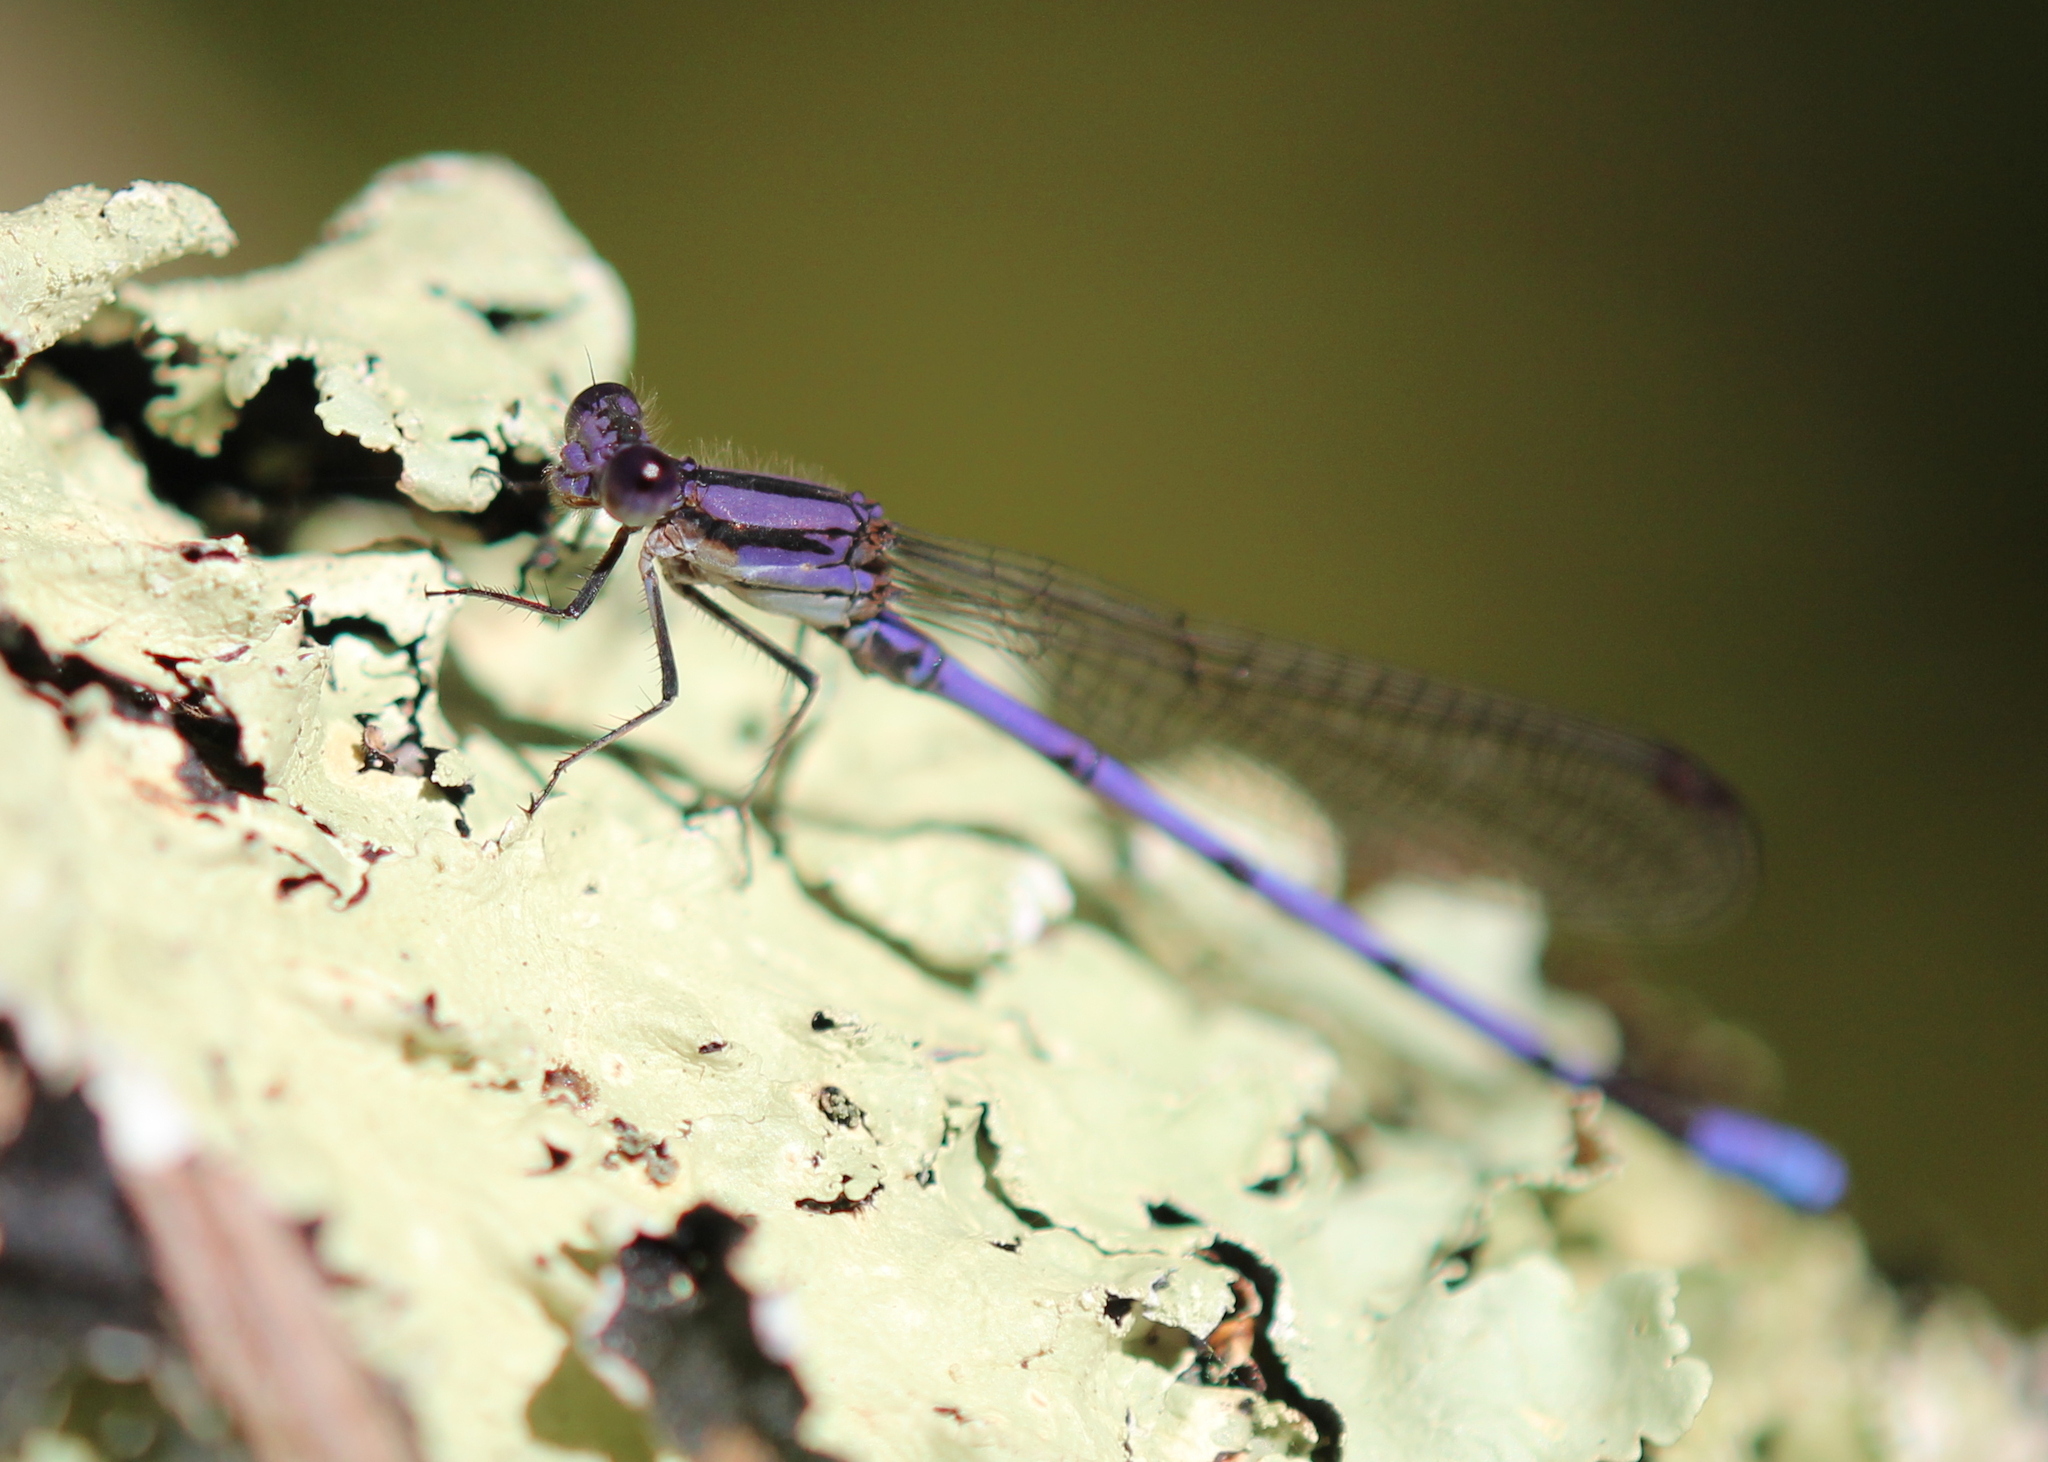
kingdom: Animalia
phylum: Arthropoda
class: Insecta
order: Odonata
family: Coenagrionidae
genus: Argia
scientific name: Argia fumipennis
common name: Variable dancer
